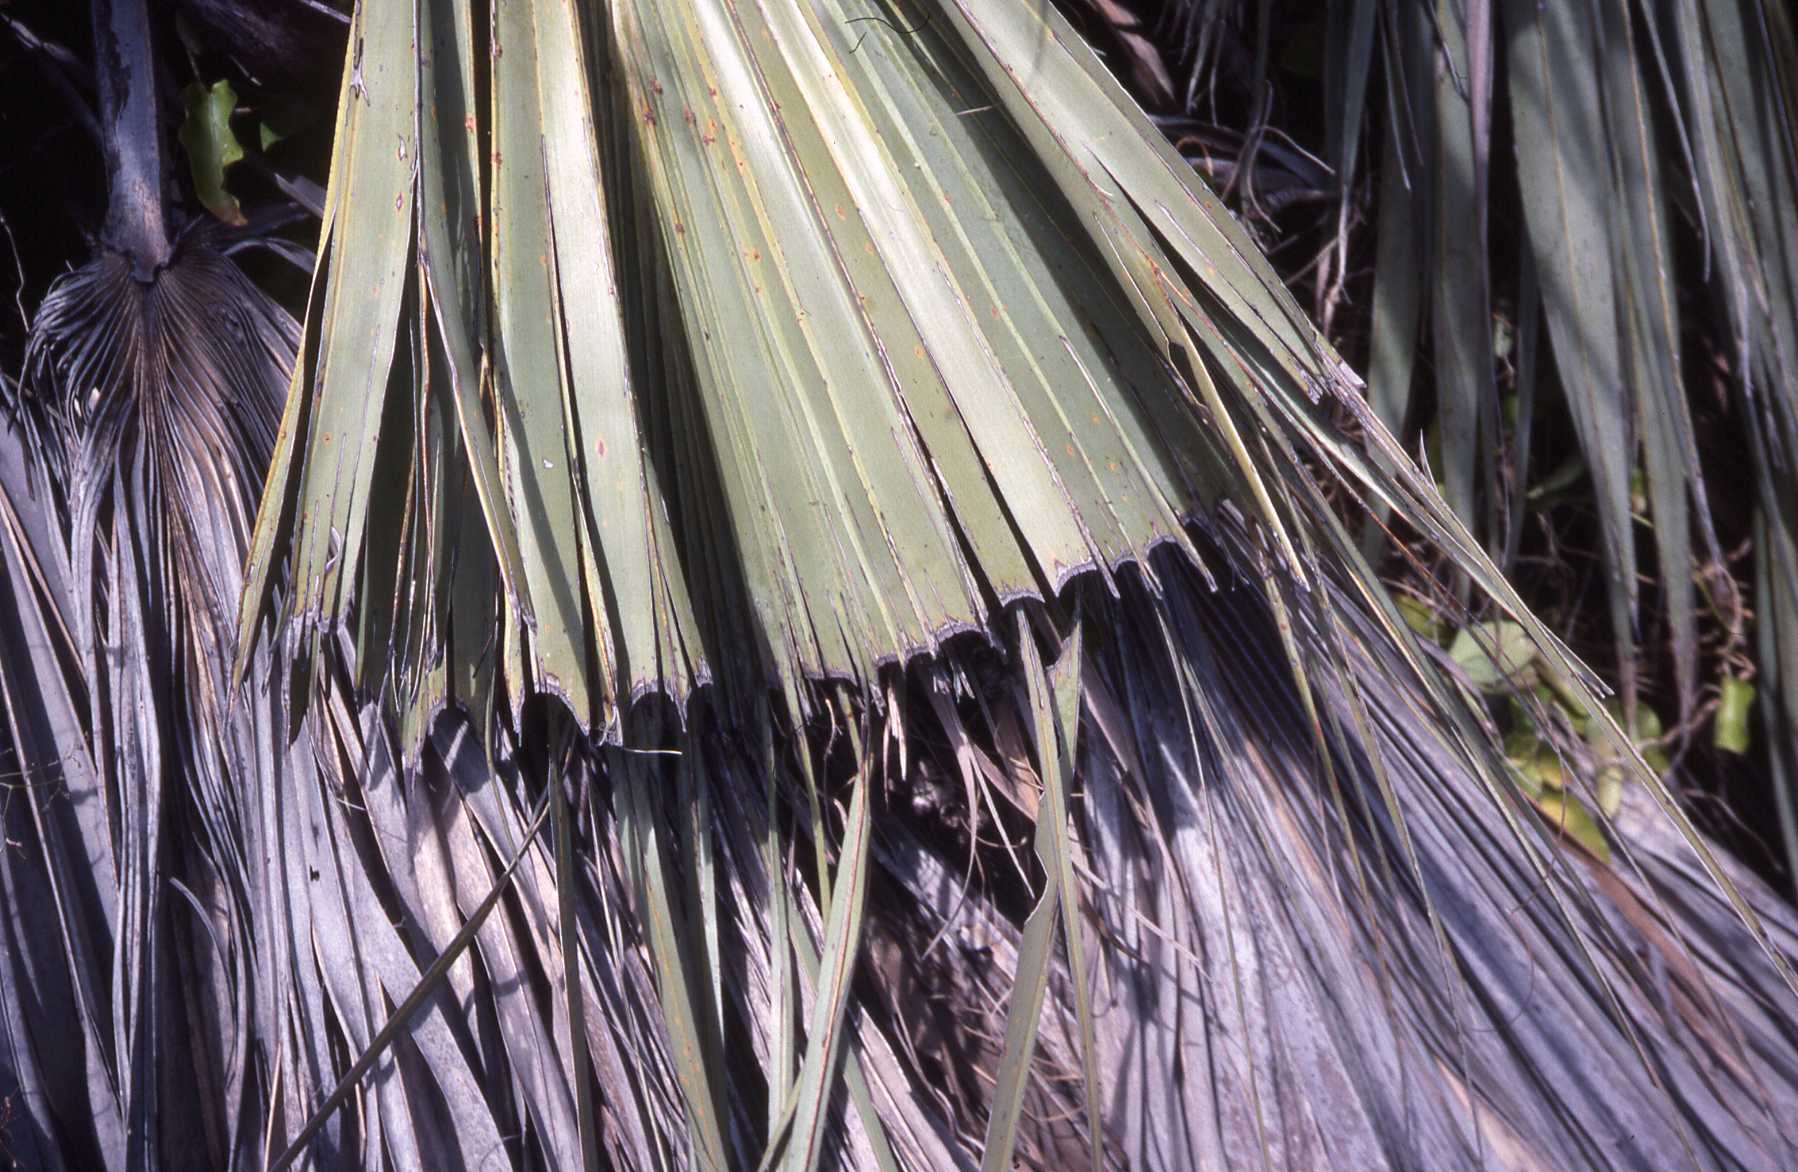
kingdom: Plantae
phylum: Tracheophyta
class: Liliopsida
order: Arecales
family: Arecaceae
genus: Latania
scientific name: Latania loddigesii
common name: Blue latan
